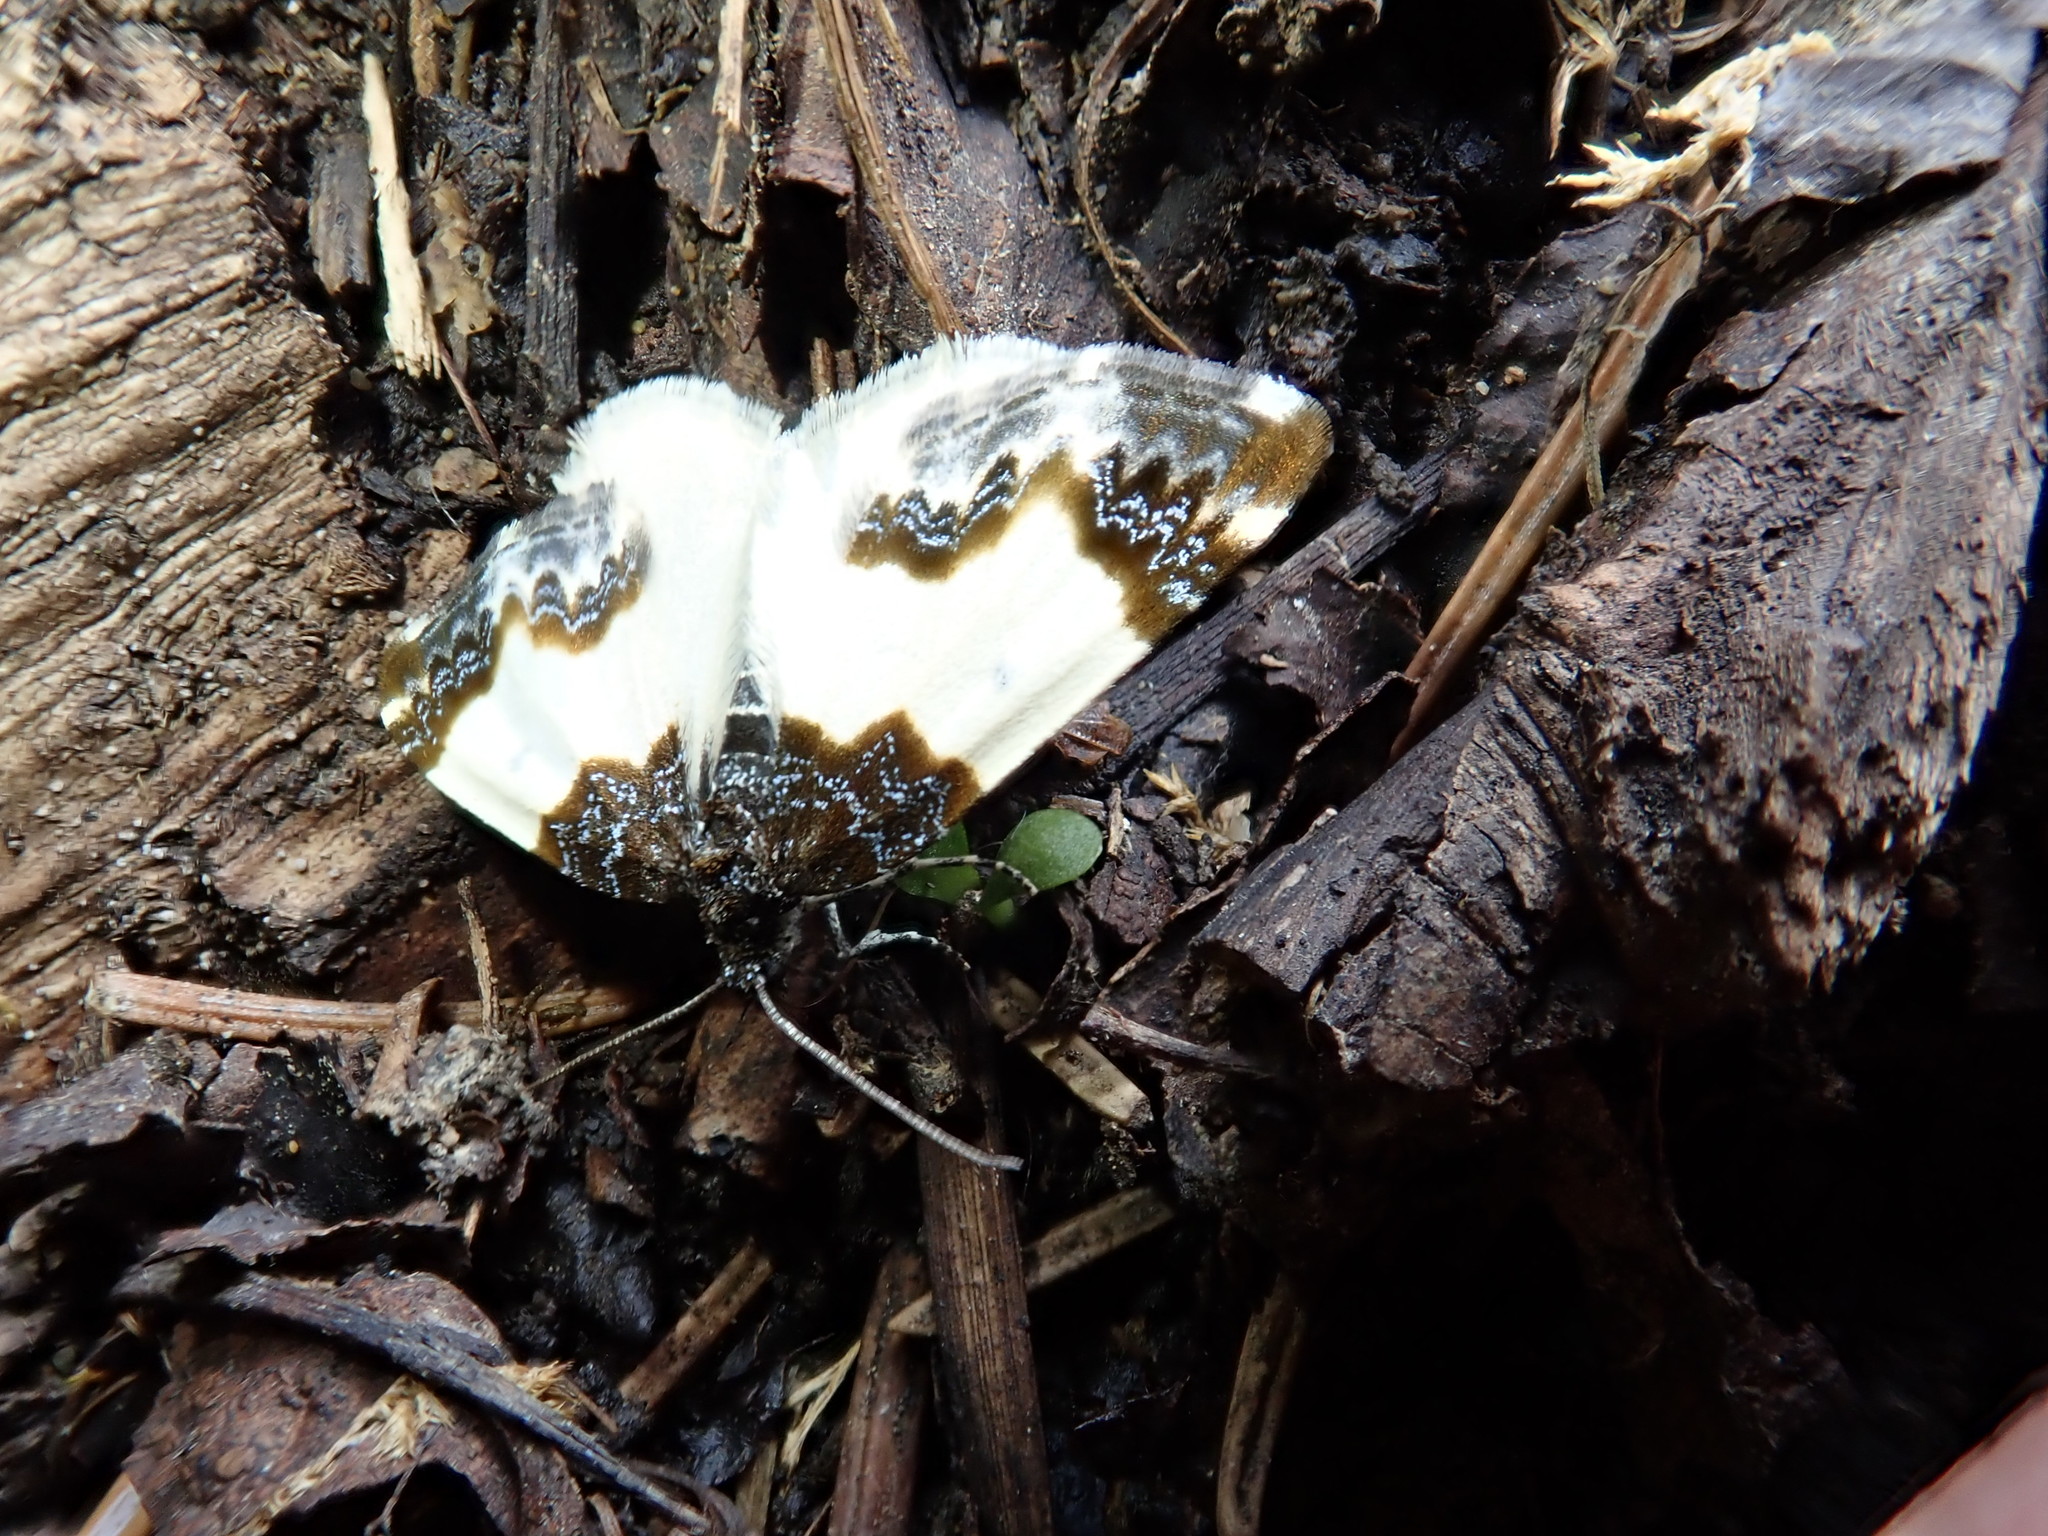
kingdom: Animalia
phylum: Arthropoda
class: Insecta
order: Lepidoptera
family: Geometridae
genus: Mesoleuca
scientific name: Mesoleuca gratulata
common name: Half-white carpet moth
